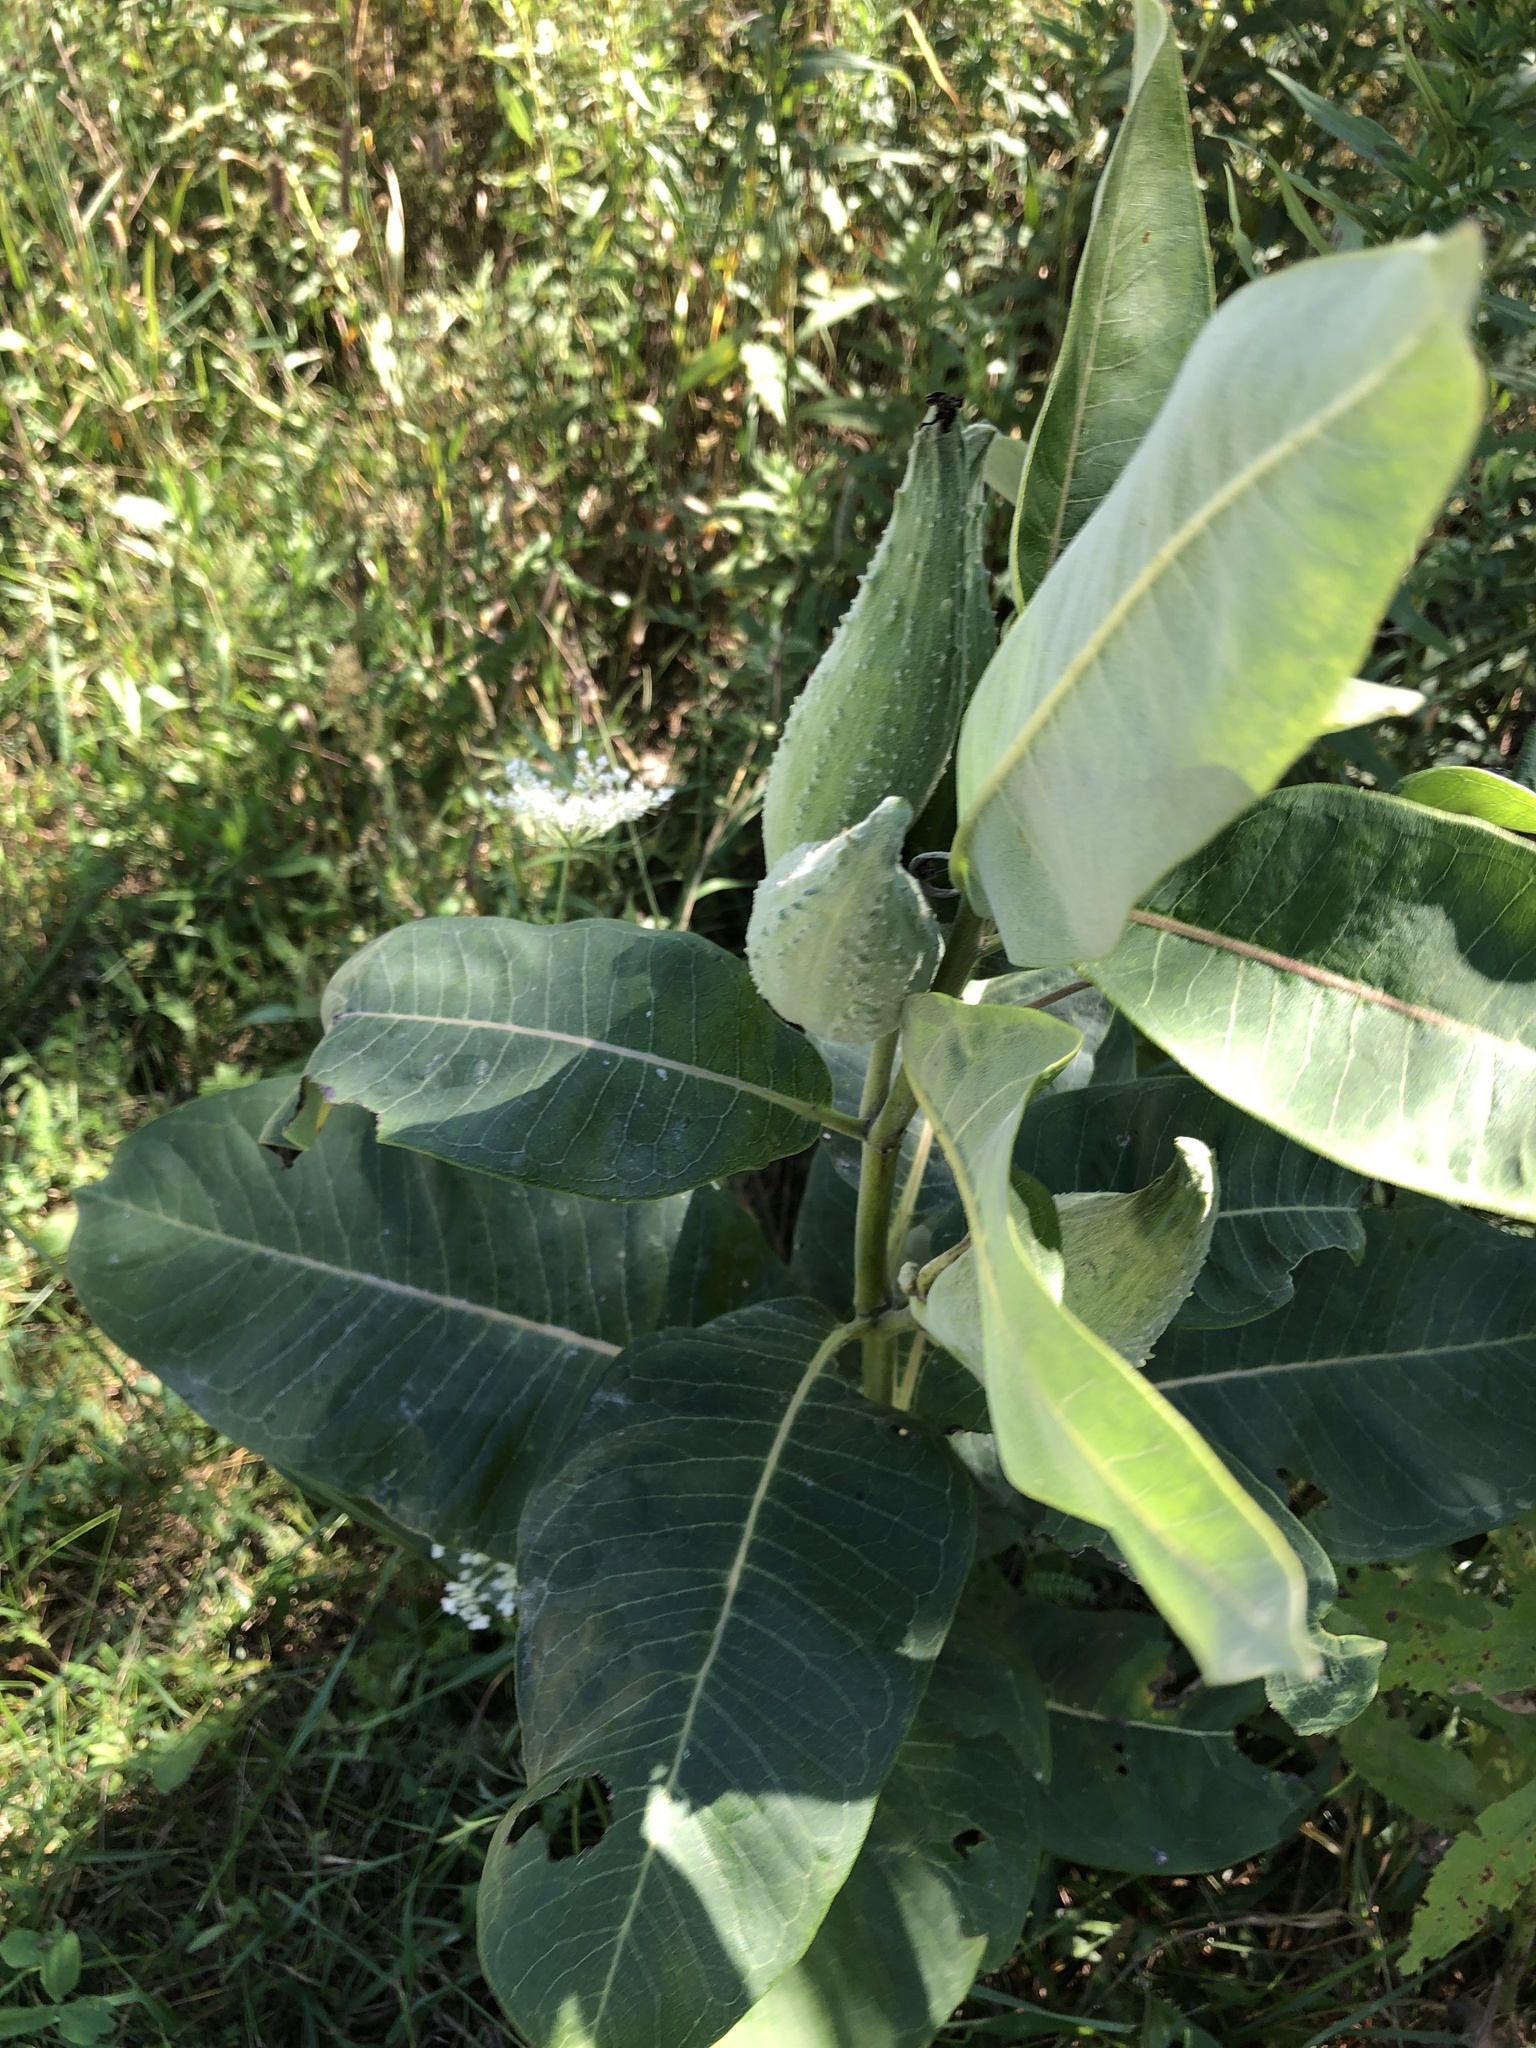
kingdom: Plantae
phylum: Tracheophyta
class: Magnoliopsida
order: Gentianales
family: Apocynaceae
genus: Asclepias
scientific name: Asclepias syriaca
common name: Common milkweed
